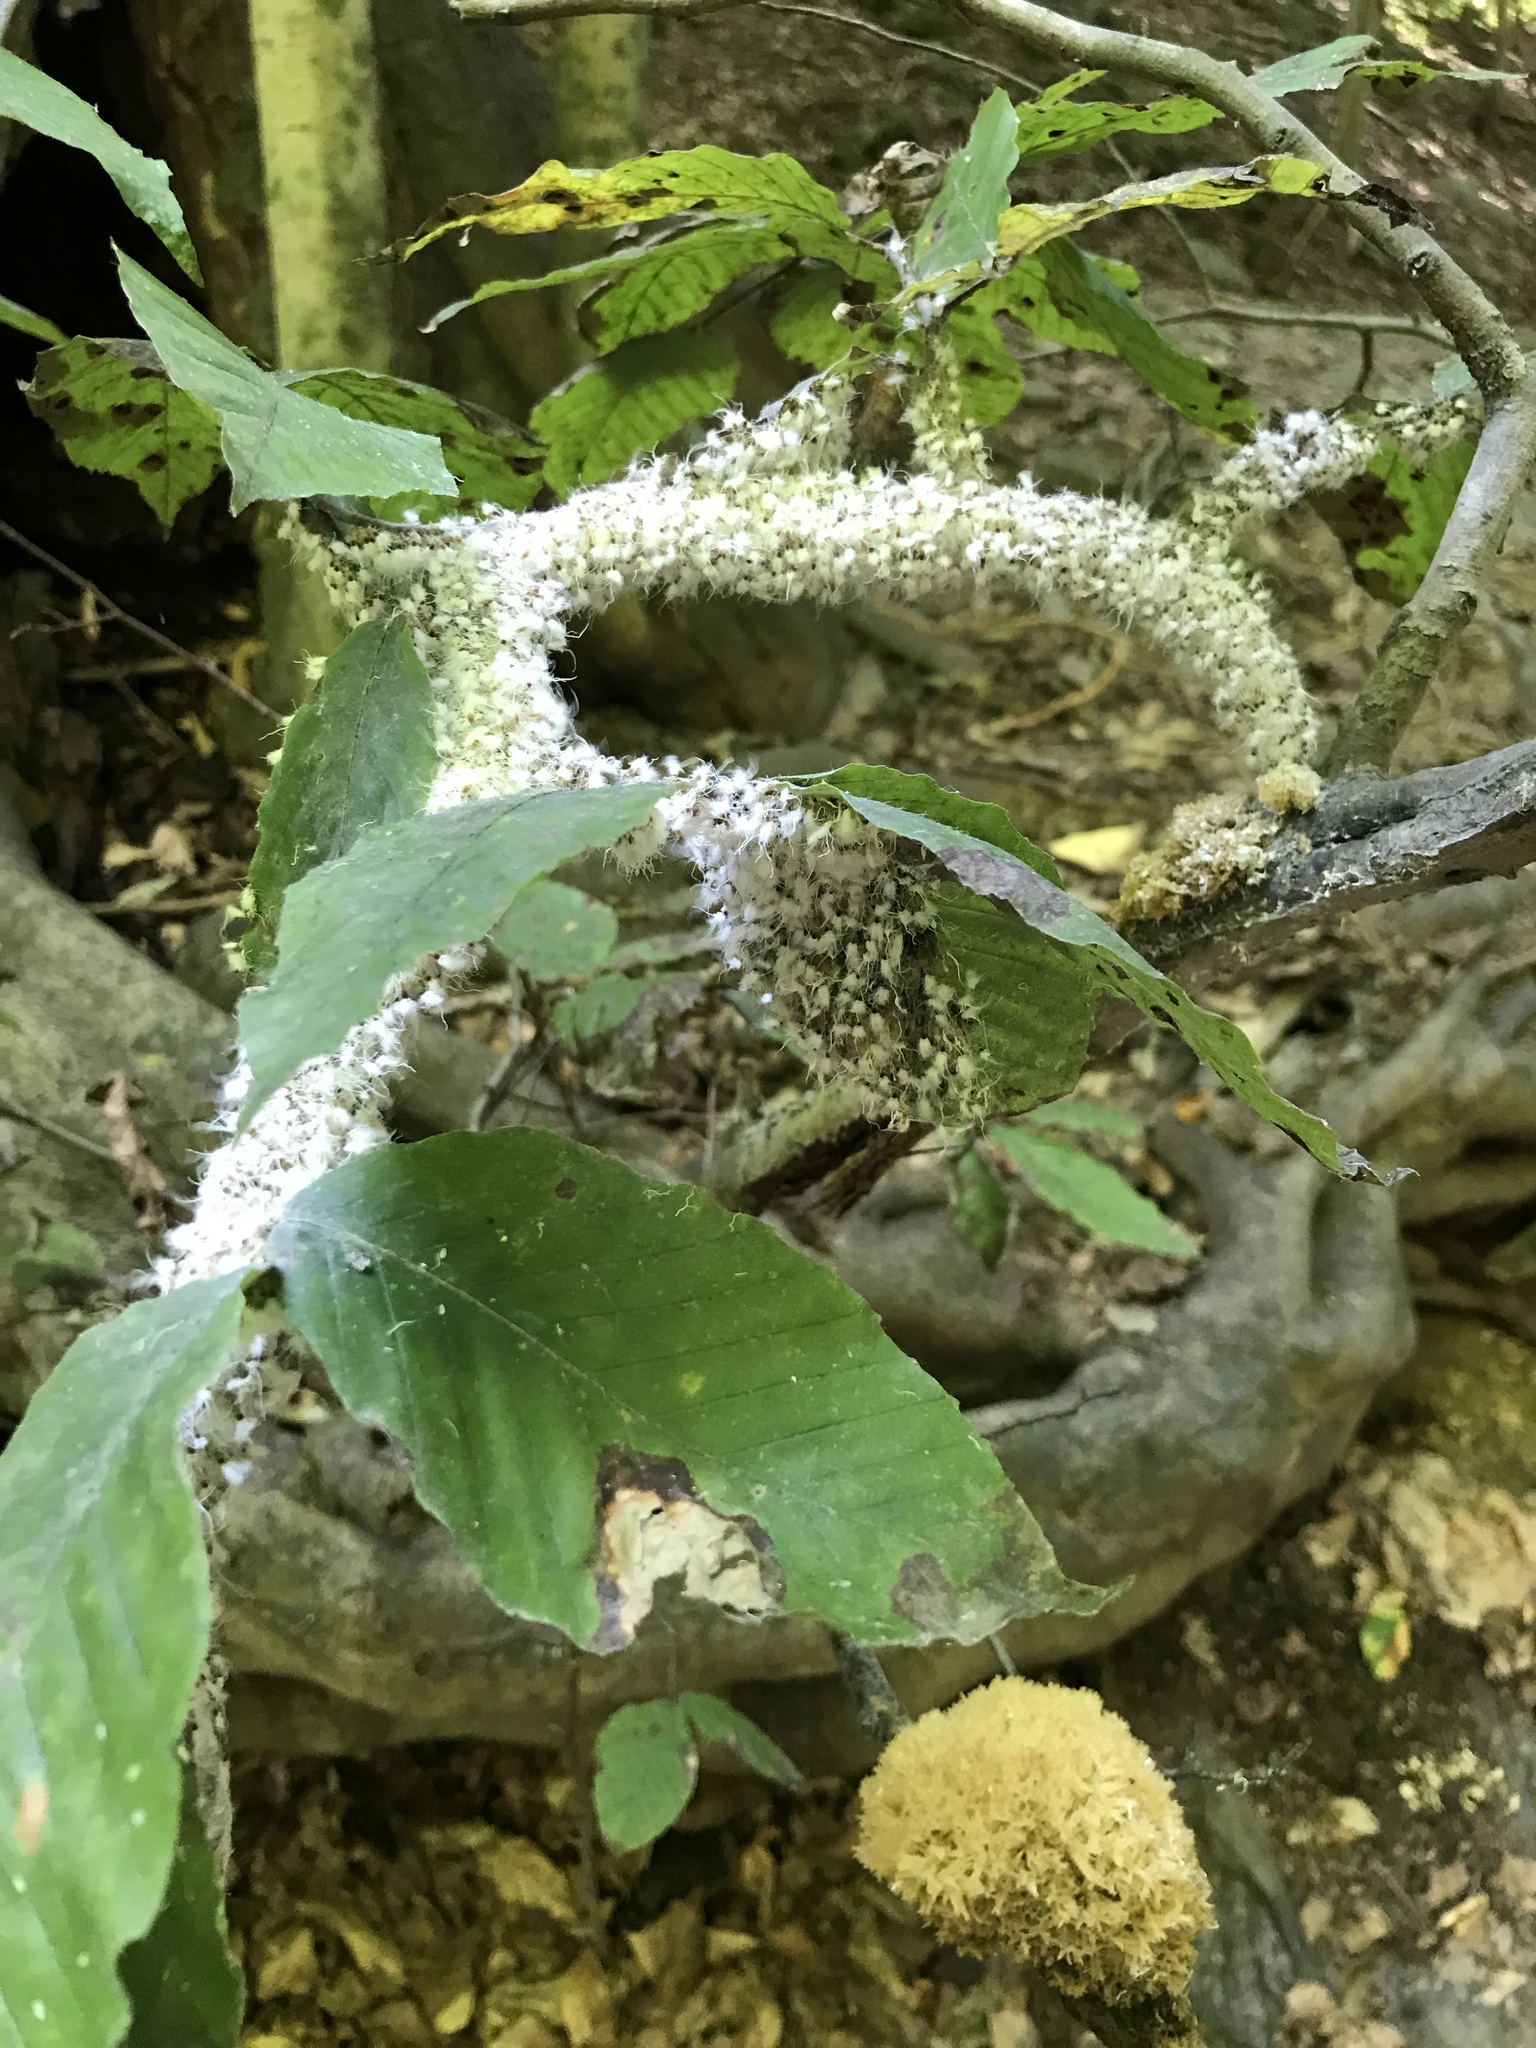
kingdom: Animalia
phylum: Arthropoda
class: Insecta
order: Hemiptera
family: Aphididae
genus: Grylloprociphilus
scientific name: Grylloprociphilus imbricator
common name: Beech blight aphid
